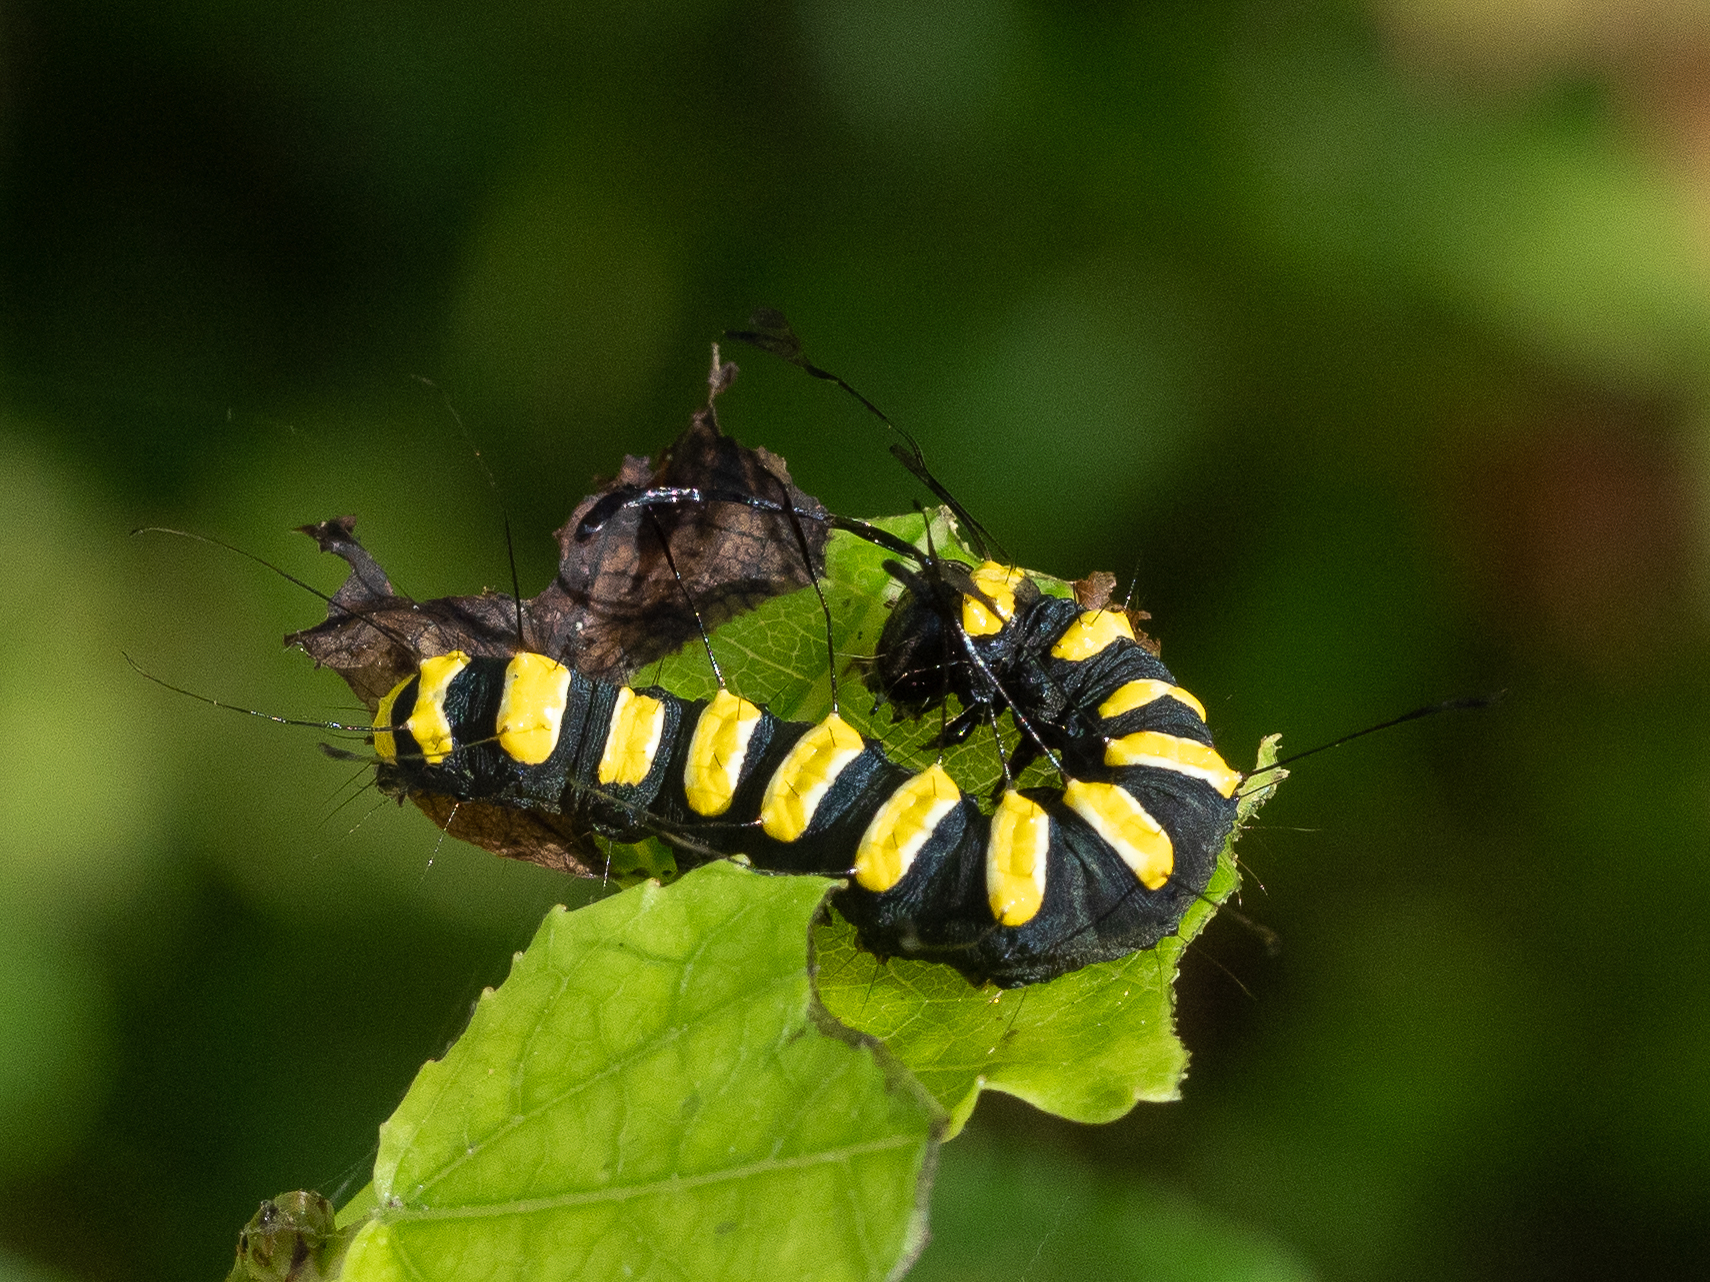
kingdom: Animalia
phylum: Arthropoda
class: Insecta
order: Lepidoptera
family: Noctuidae
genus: Acronicta
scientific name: Acronicta alni
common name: Alder moth
